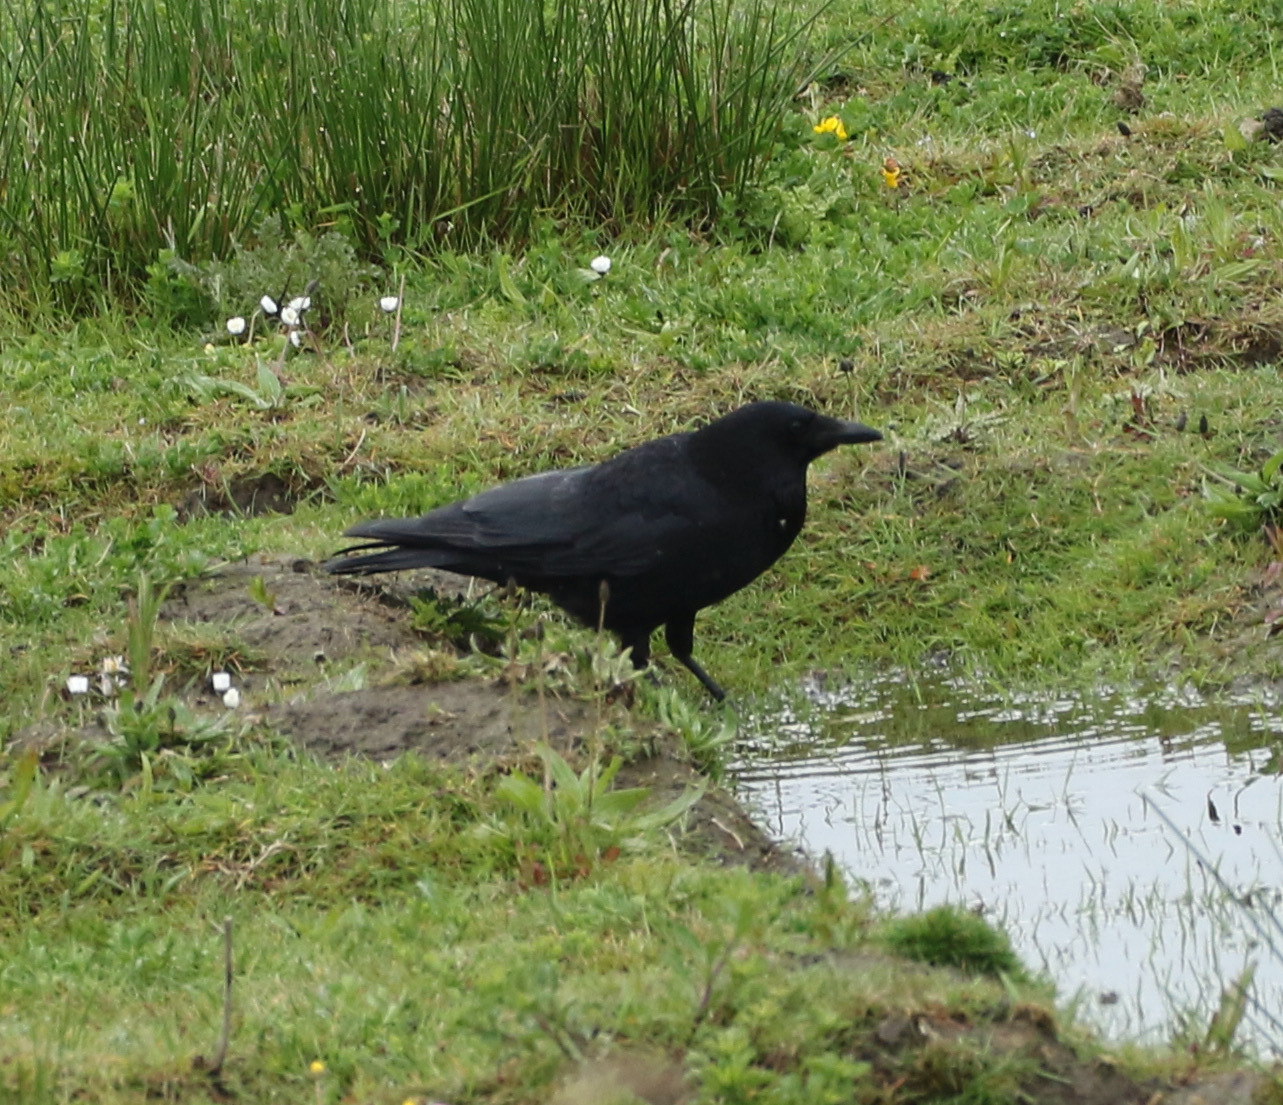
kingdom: Animalia
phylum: Chordata
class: Aves
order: Passeriformes
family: Corvidae
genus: Corvus
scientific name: Corvus corone
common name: Carrion crow
